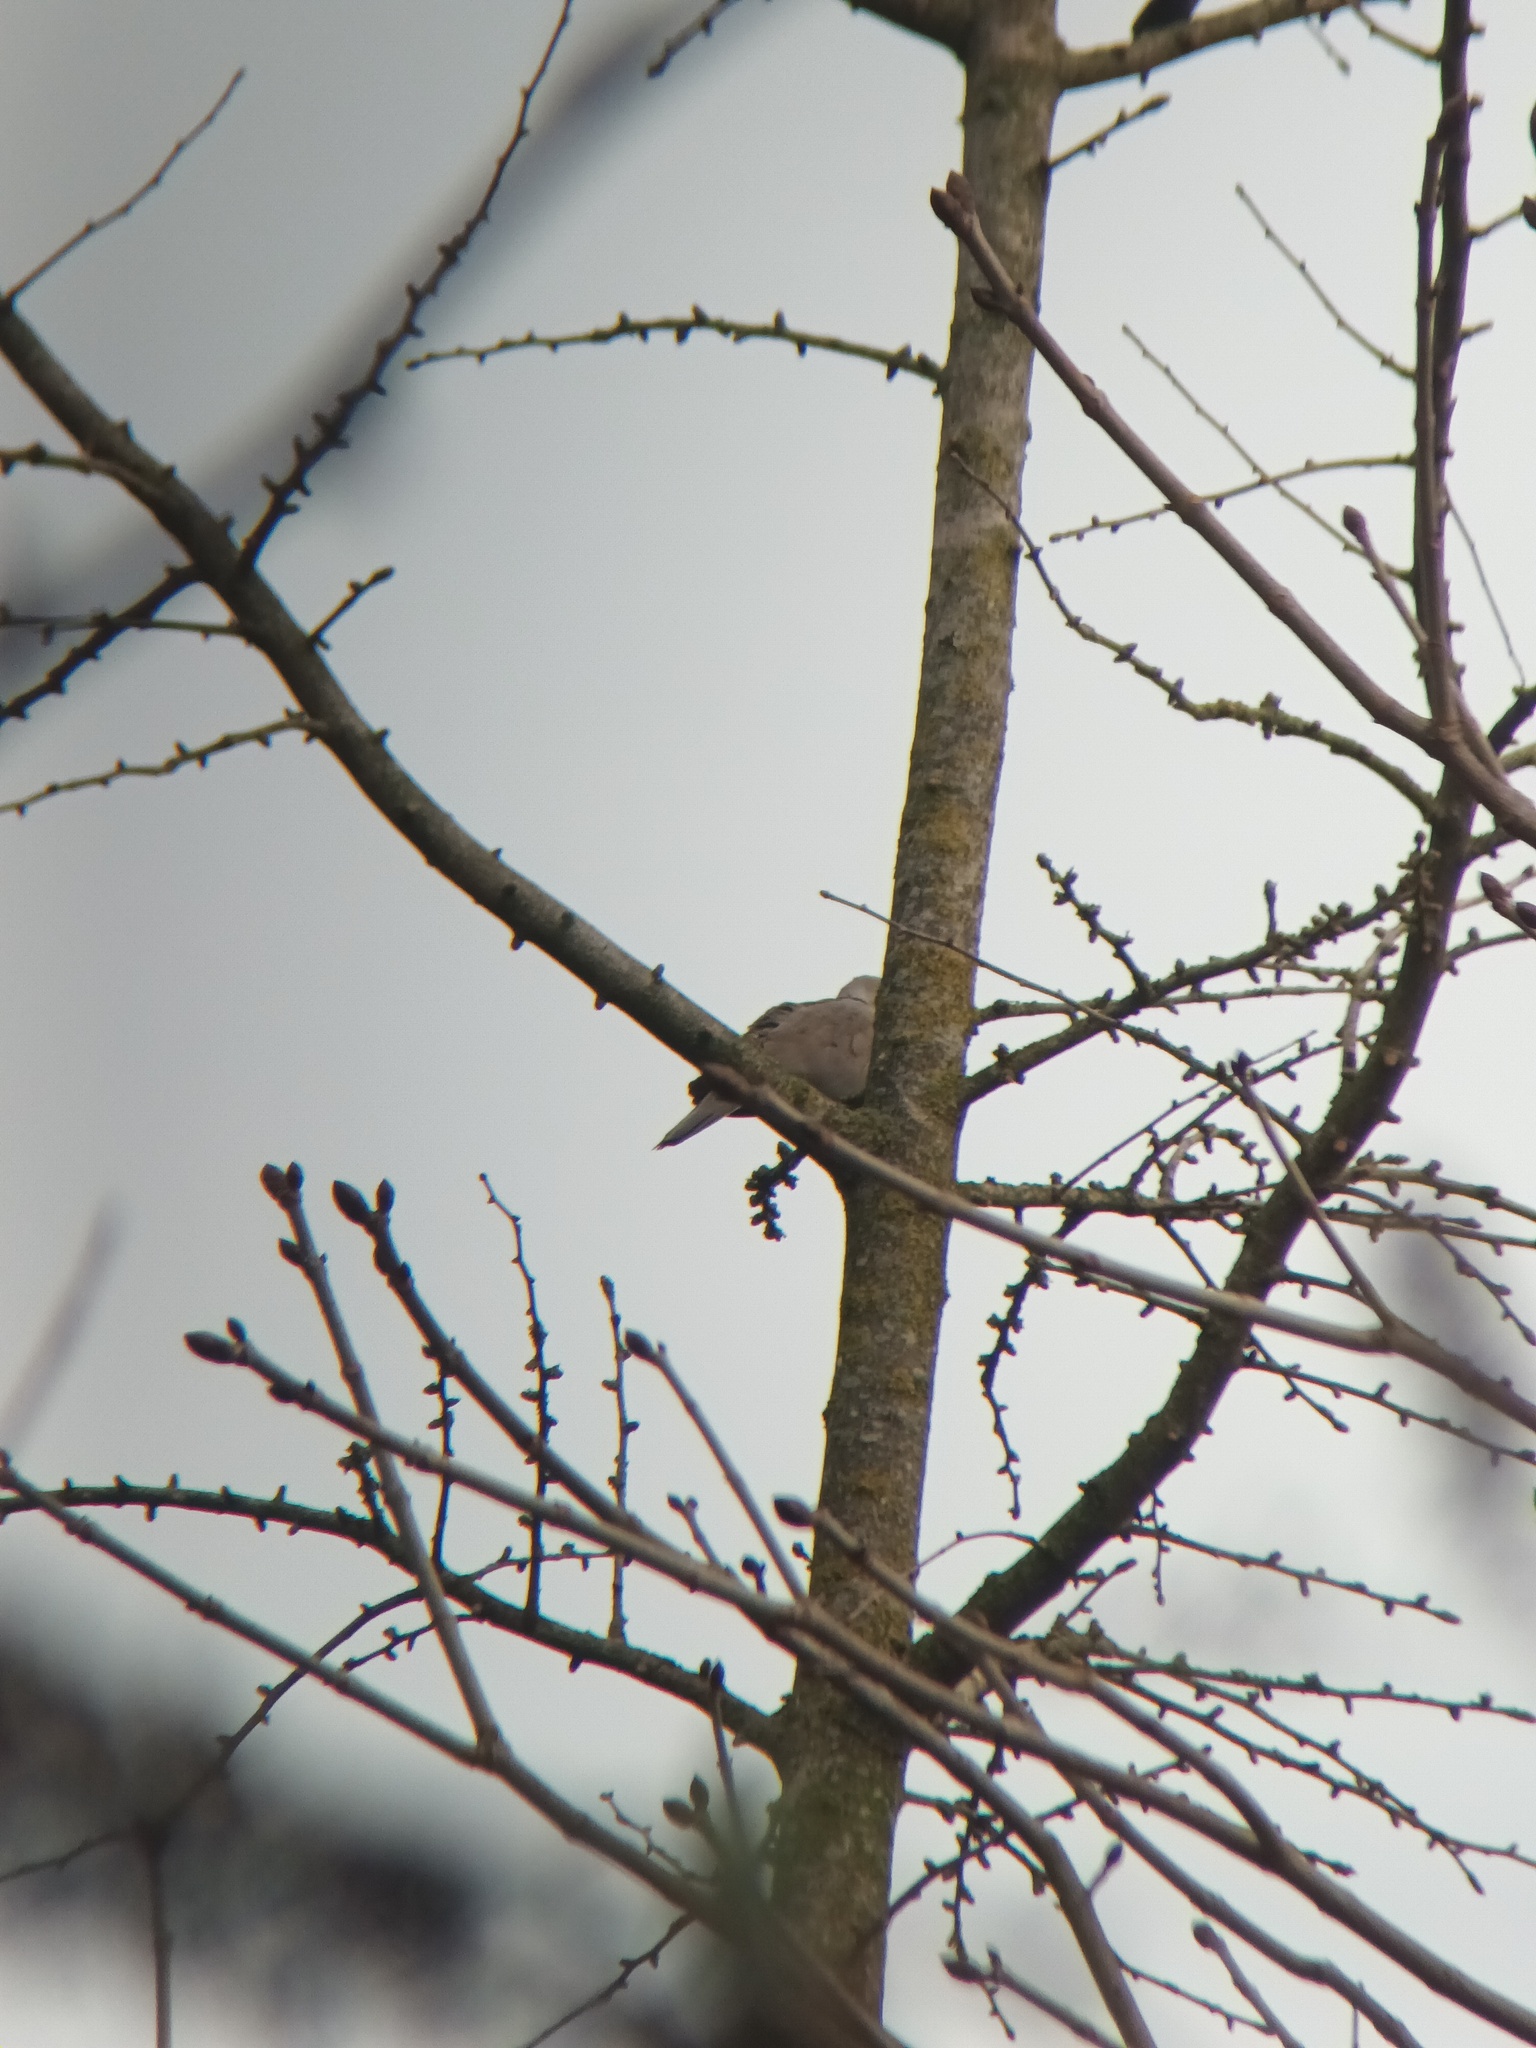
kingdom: Animalia
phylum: Chordata
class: Aves
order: Columbiformes
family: Columbidae
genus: Streptopelia
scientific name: Streptopelia decaocto
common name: Eurasian collared dove
